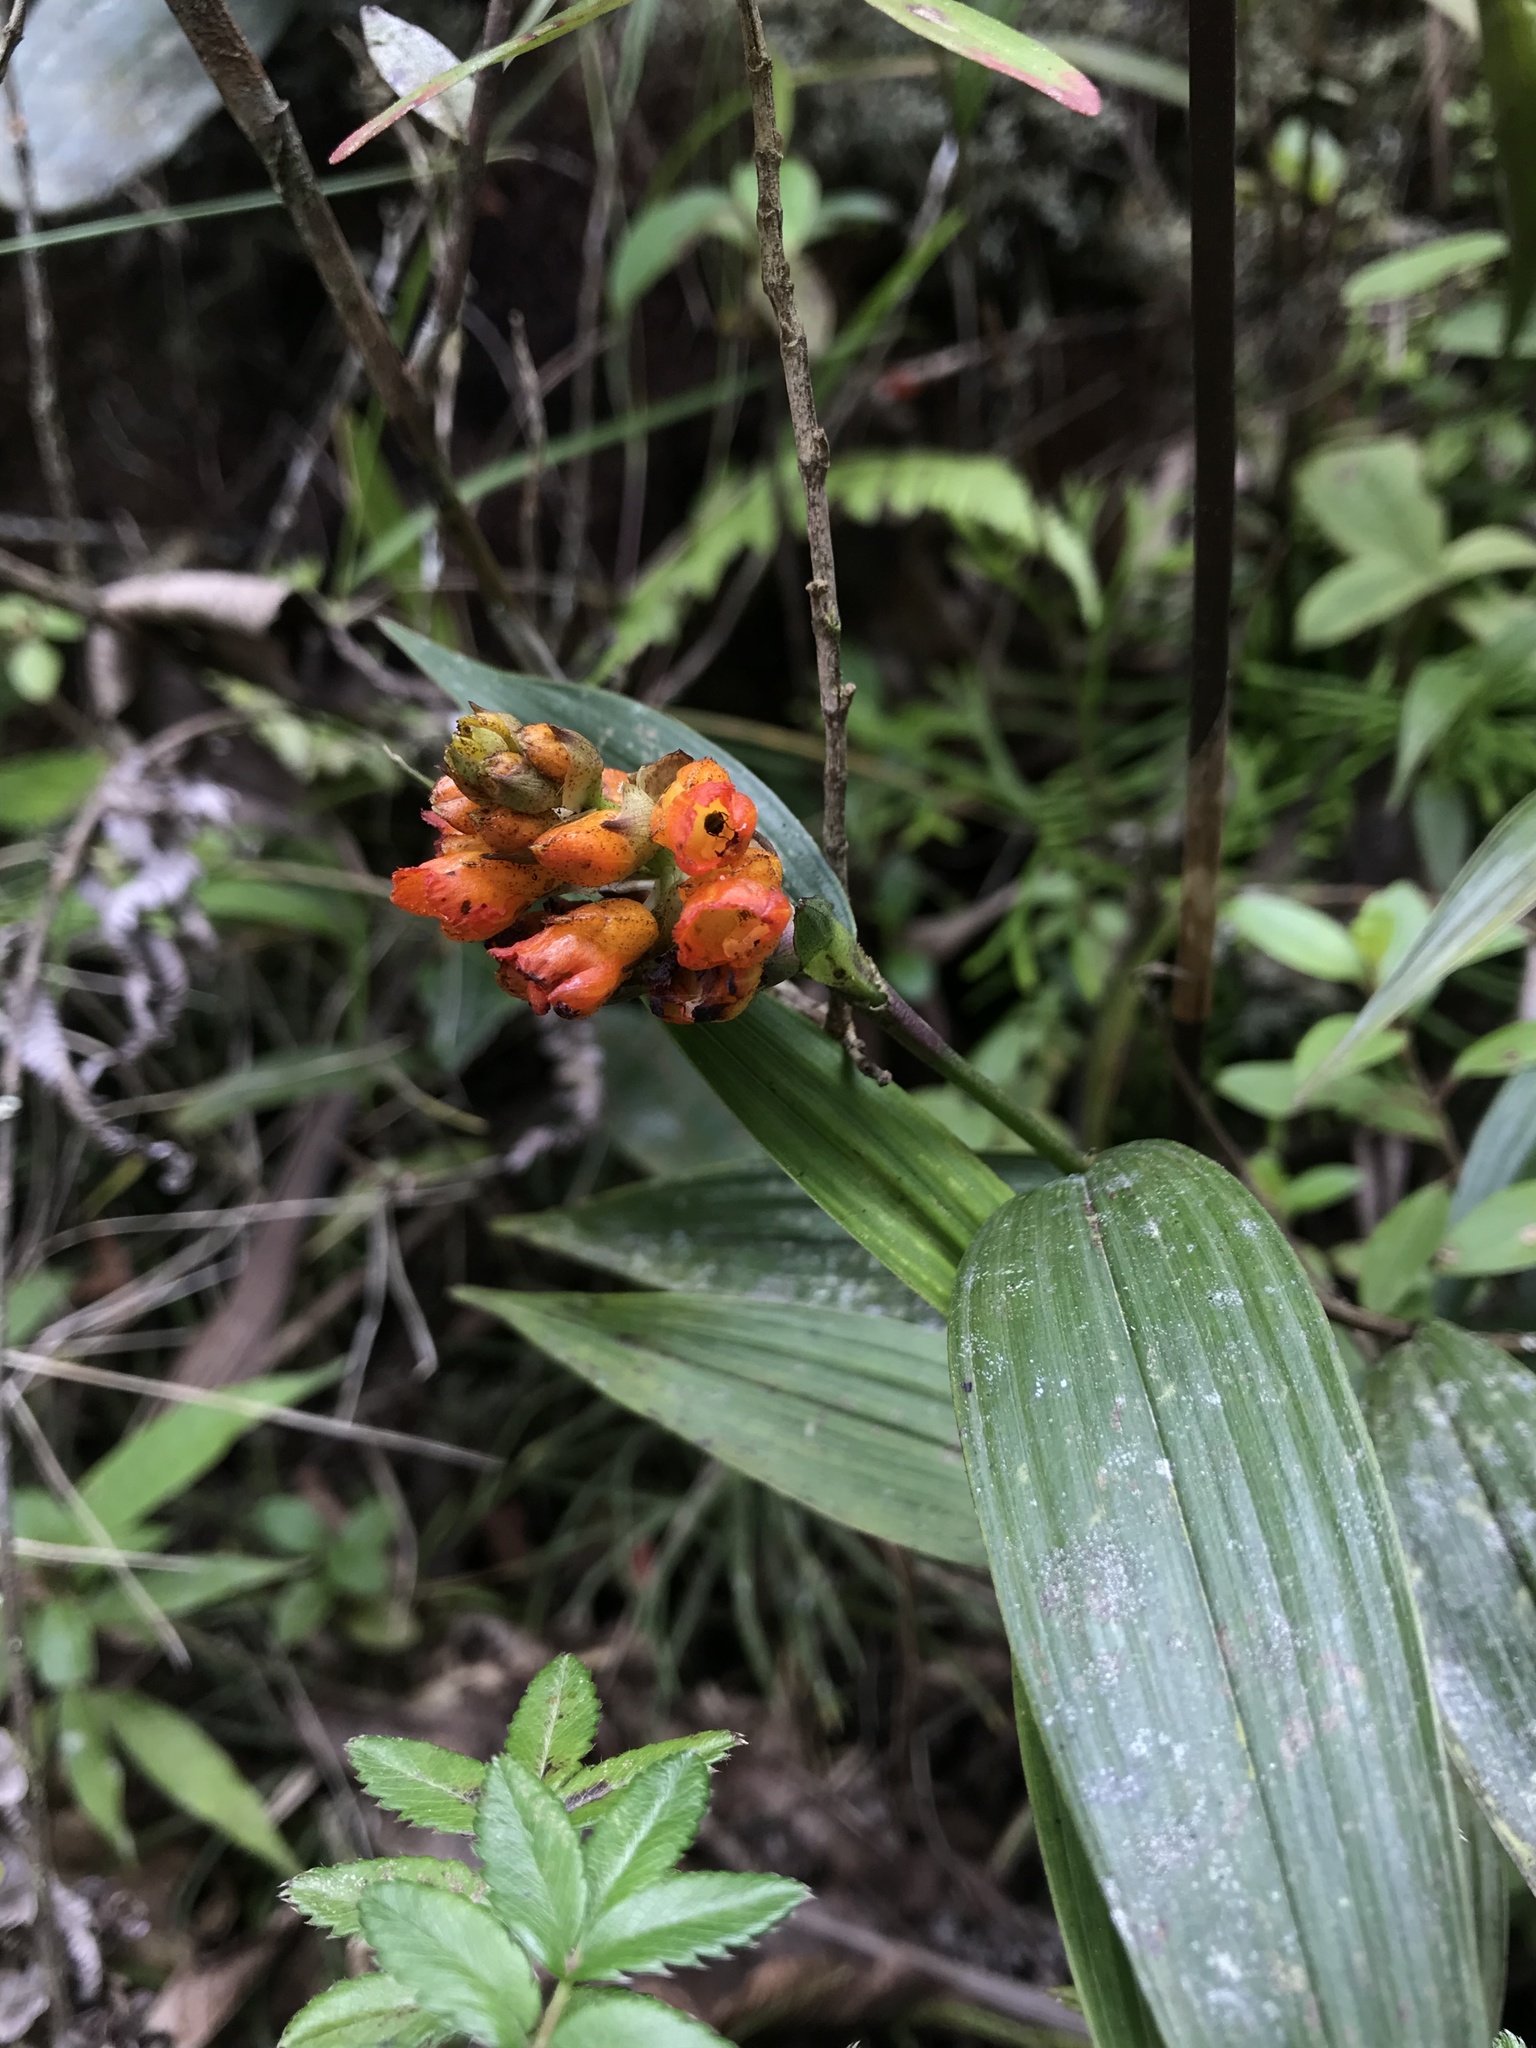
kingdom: Plantae
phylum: Tracheophyta
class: Liliopsida
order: Asparagales
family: Orchidaceae
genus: Elleanthus
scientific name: Elleanthus aurantiacus
